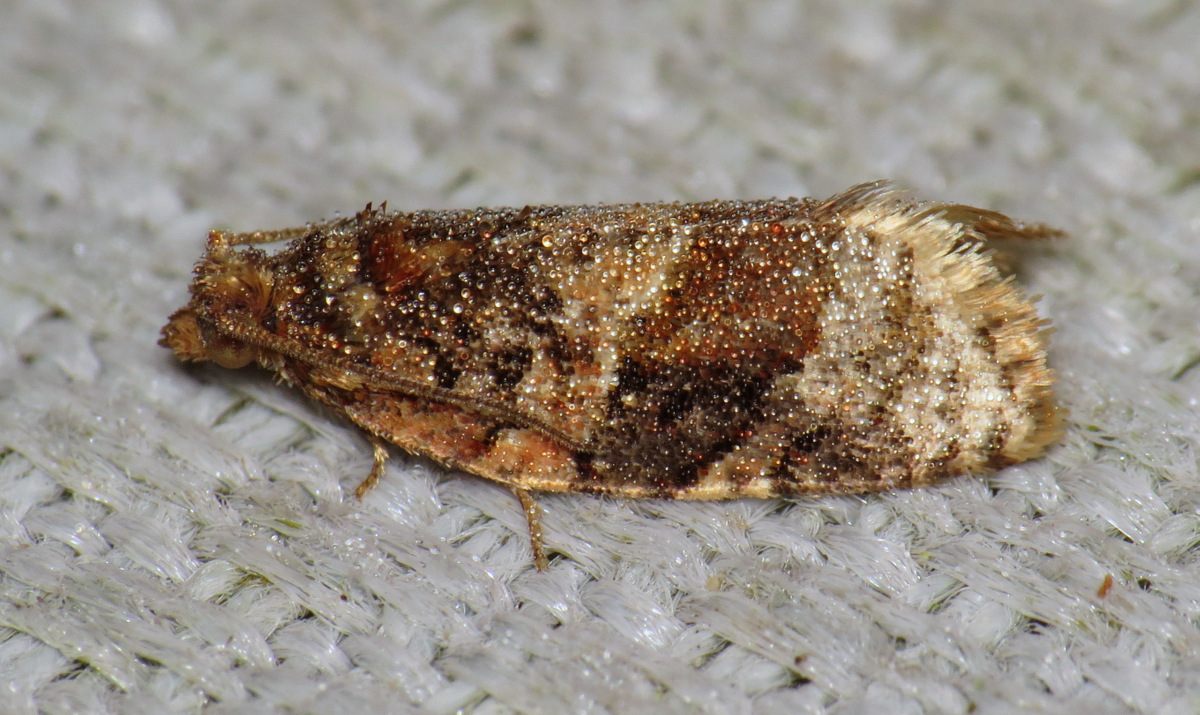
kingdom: Animalia
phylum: Arthropoda
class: Insecta
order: Lepidoptera
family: Tortricidae
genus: Argyrotaenia
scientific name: Argyrotaenia velutinana
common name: Red-banded leafroller moth
